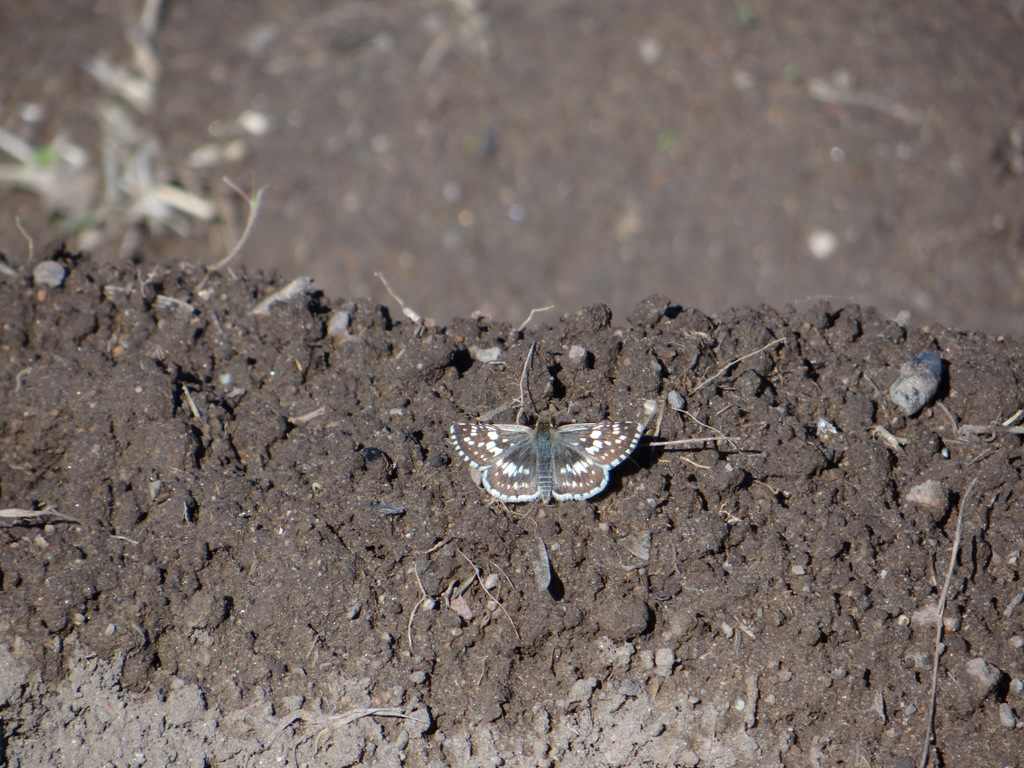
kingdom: Animalia
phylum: Arthropoda
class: Insecta
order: Lepidoptera
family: Hesperiidae
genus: Burnsius
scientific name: Burnsius orcynoides
